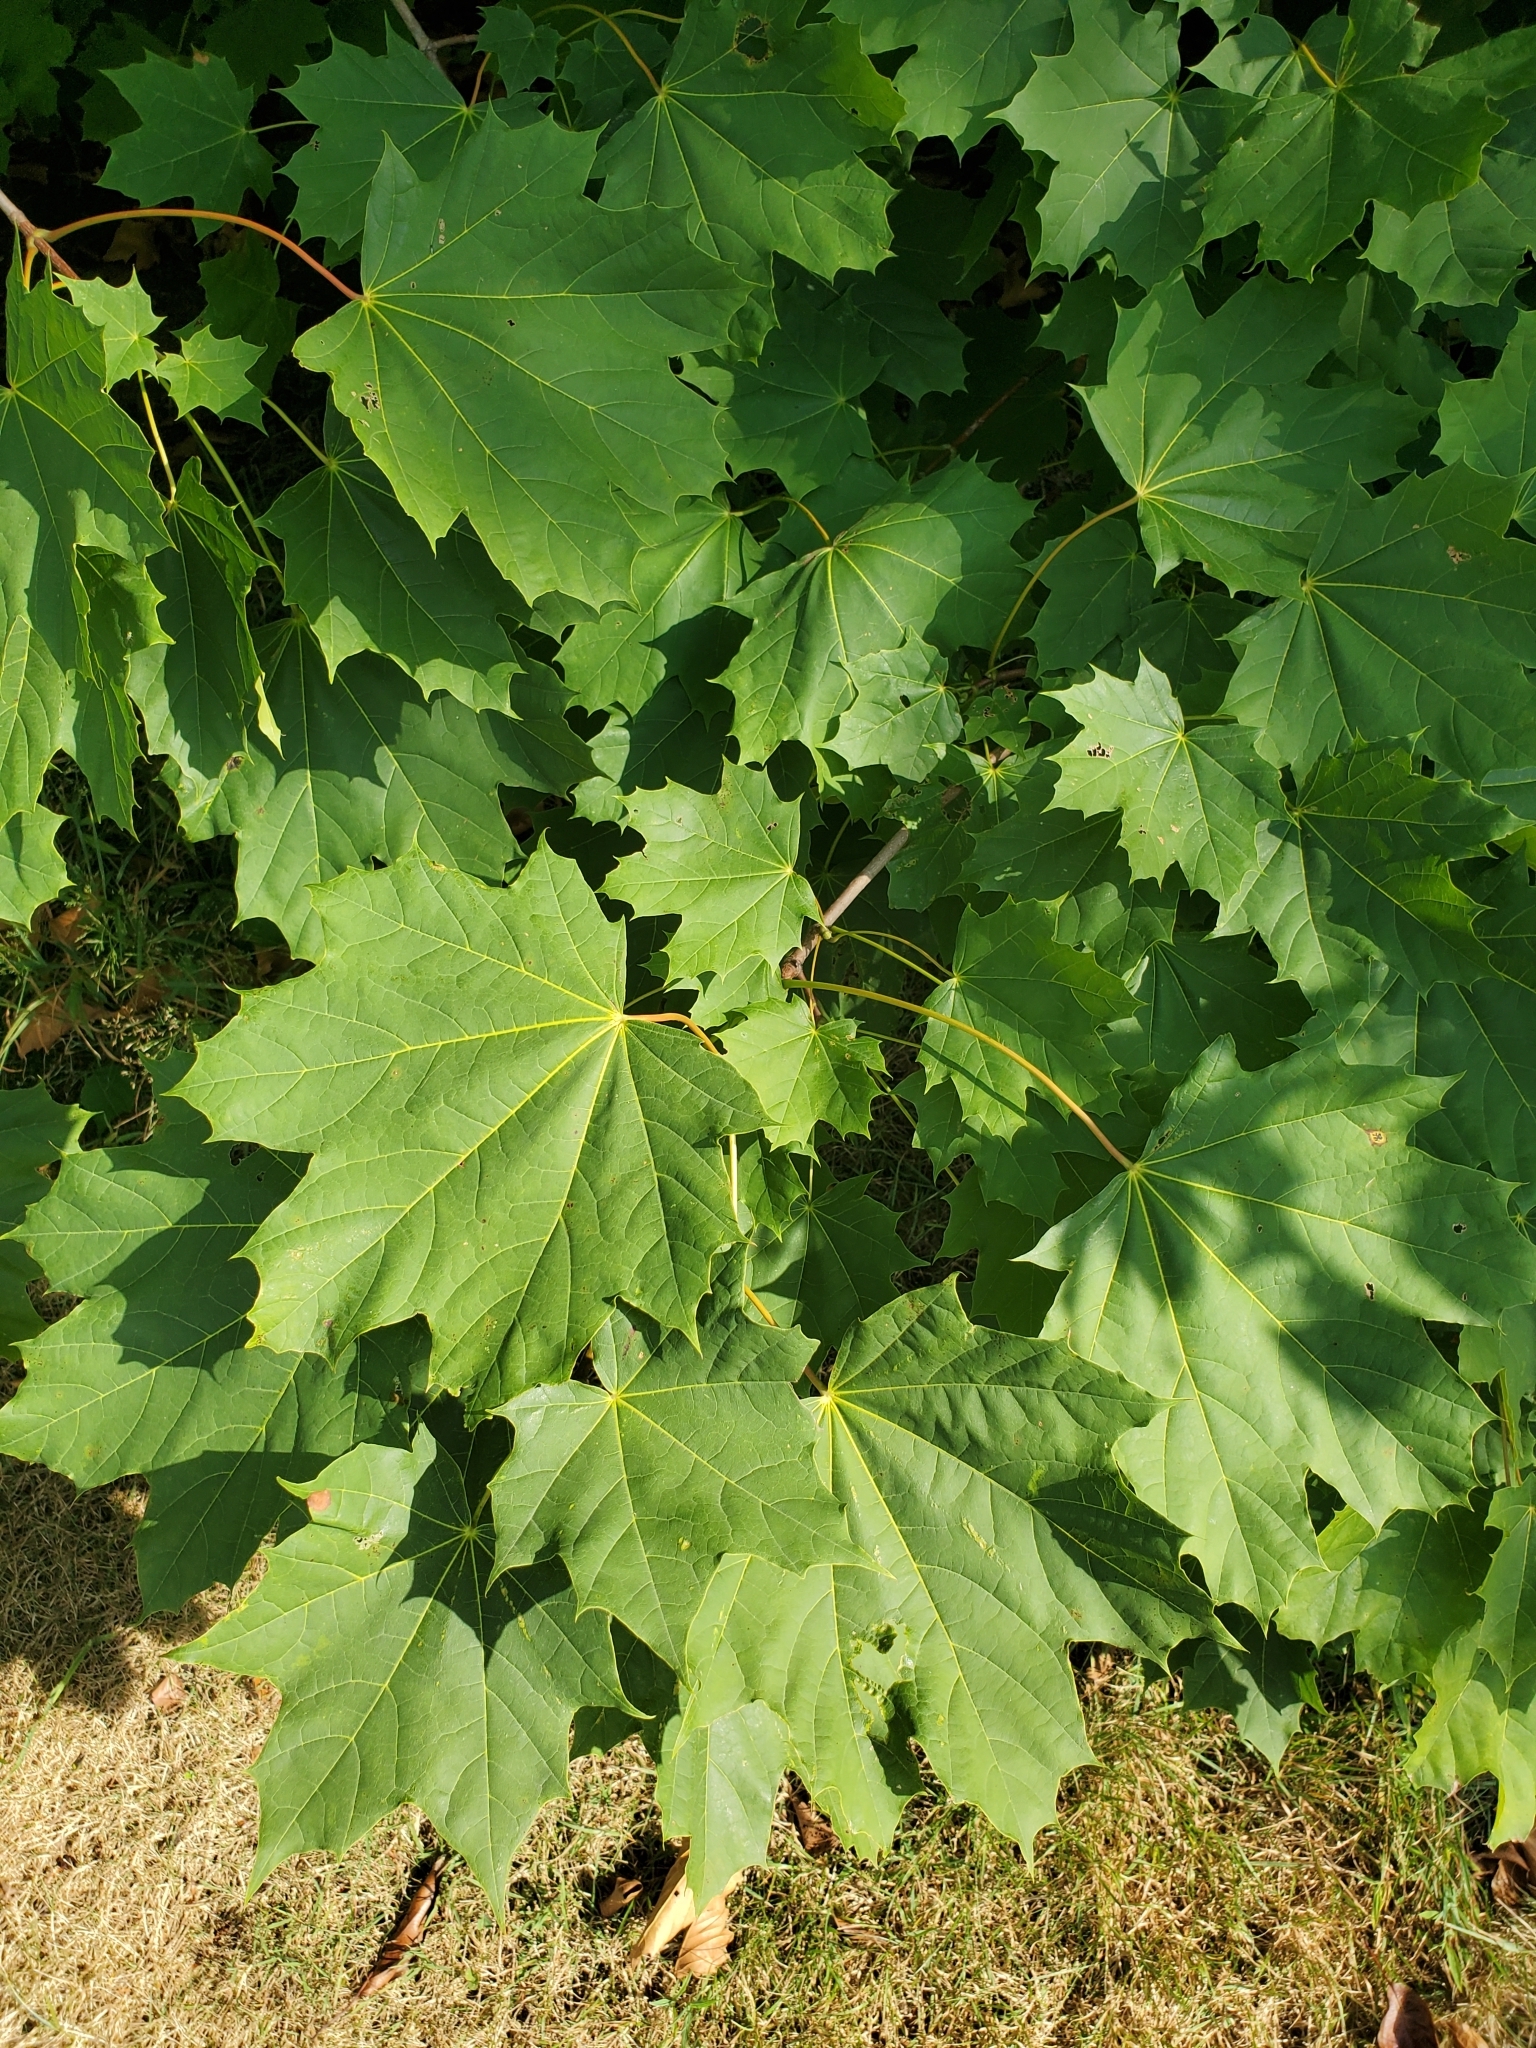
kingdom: Plantae
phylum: Tracheophyta
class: Magnoliopsida
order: Sapindales
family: Sapindaceae
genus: Acer
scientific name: Acer platanoides
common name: Norway maple
